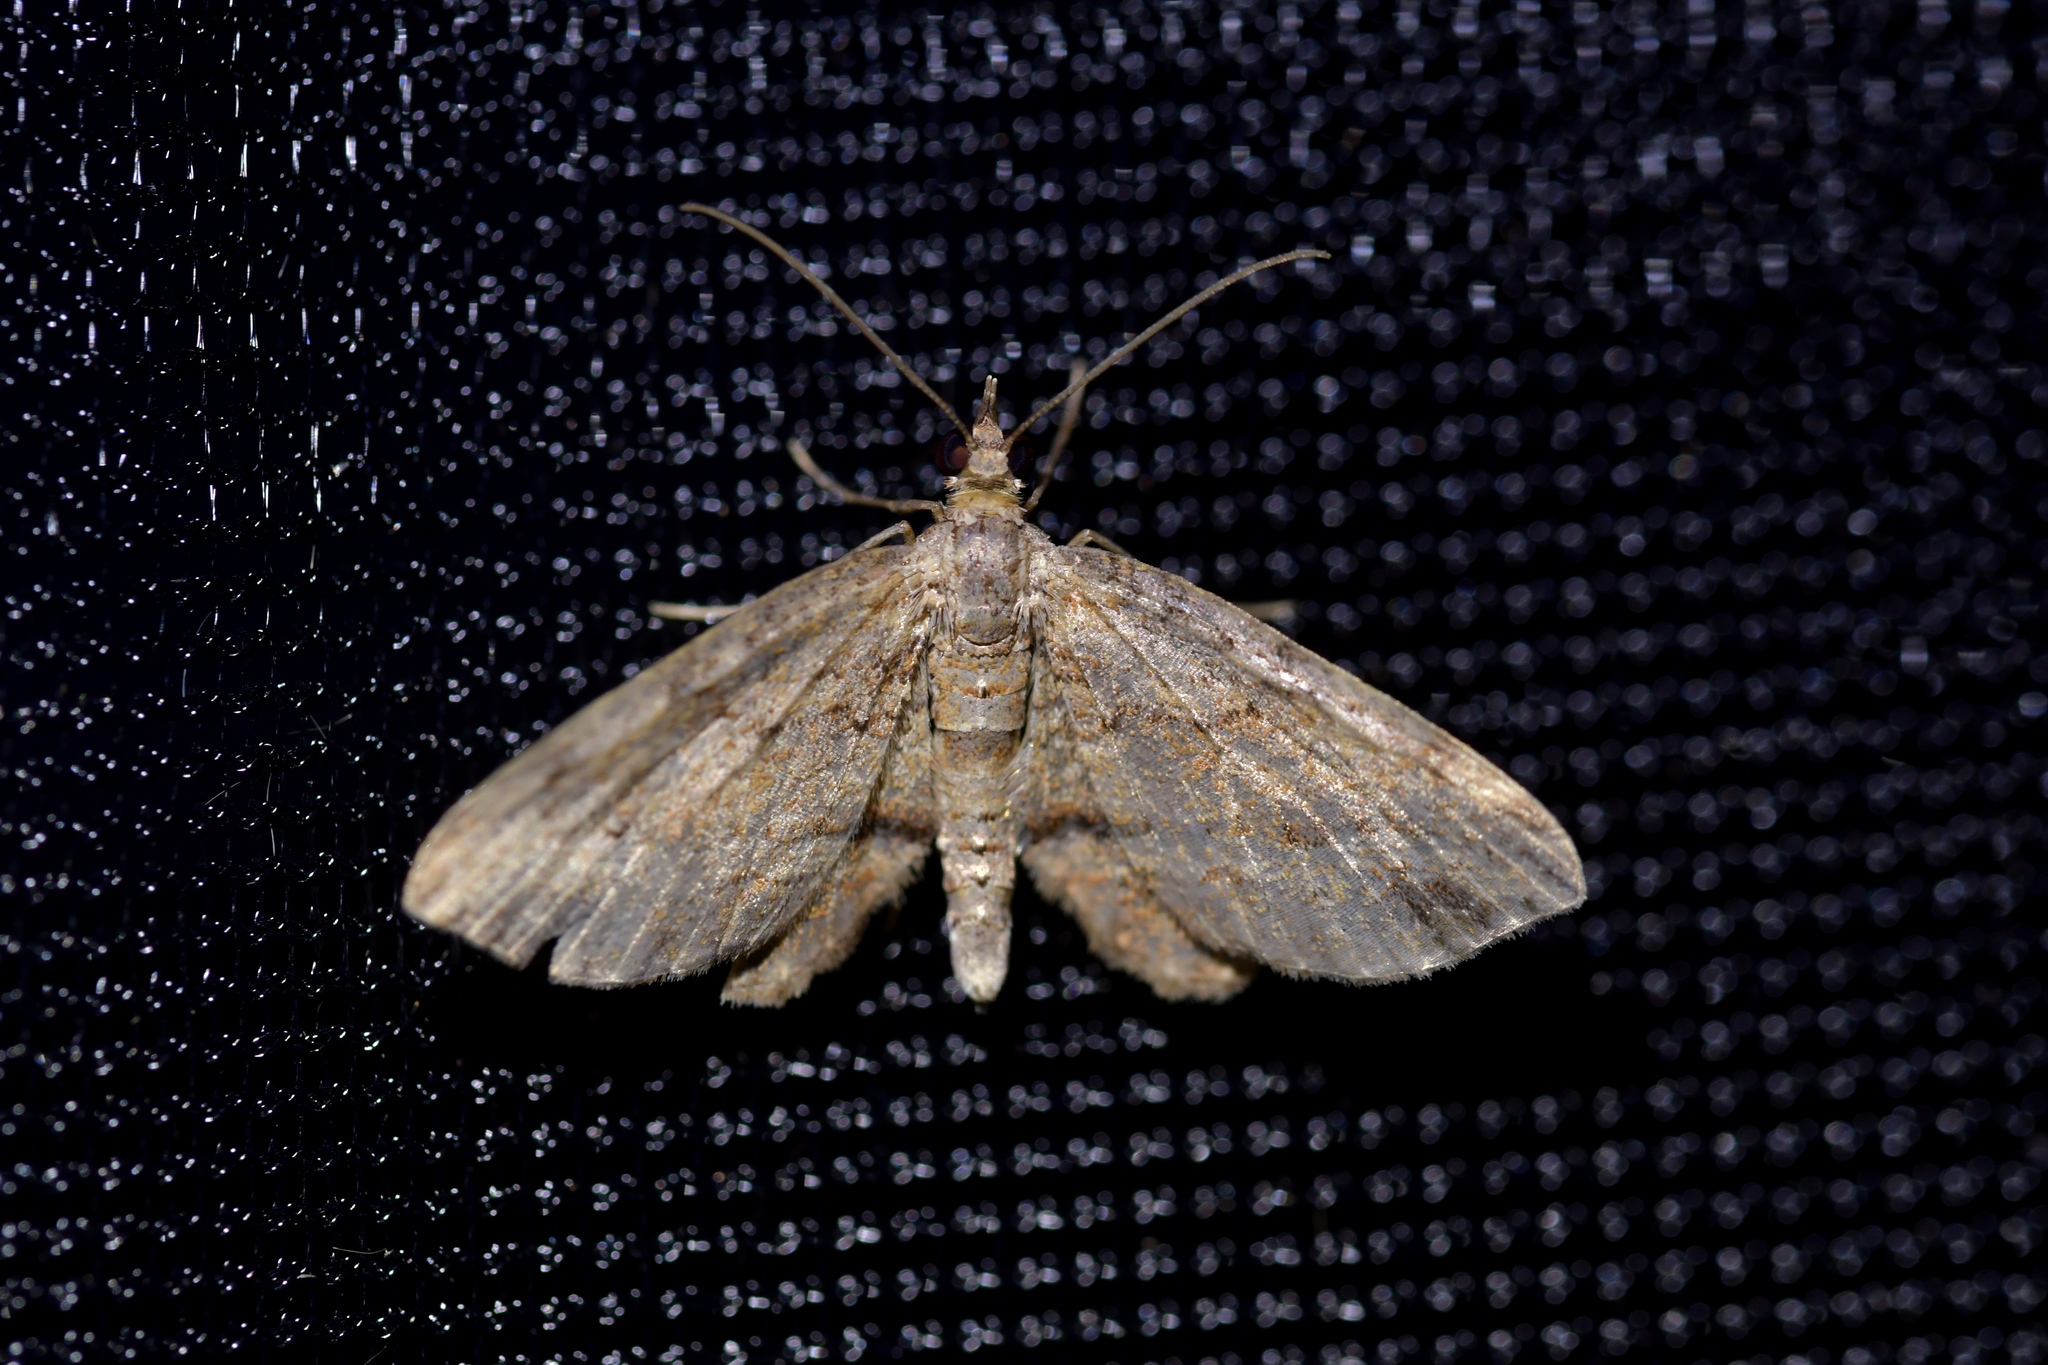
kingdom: Animalia
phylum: Arthropoda
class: Insecta
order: Lepidoptera
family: Geometridae
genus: Chloroclystis
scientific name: Chloroclystis filata
